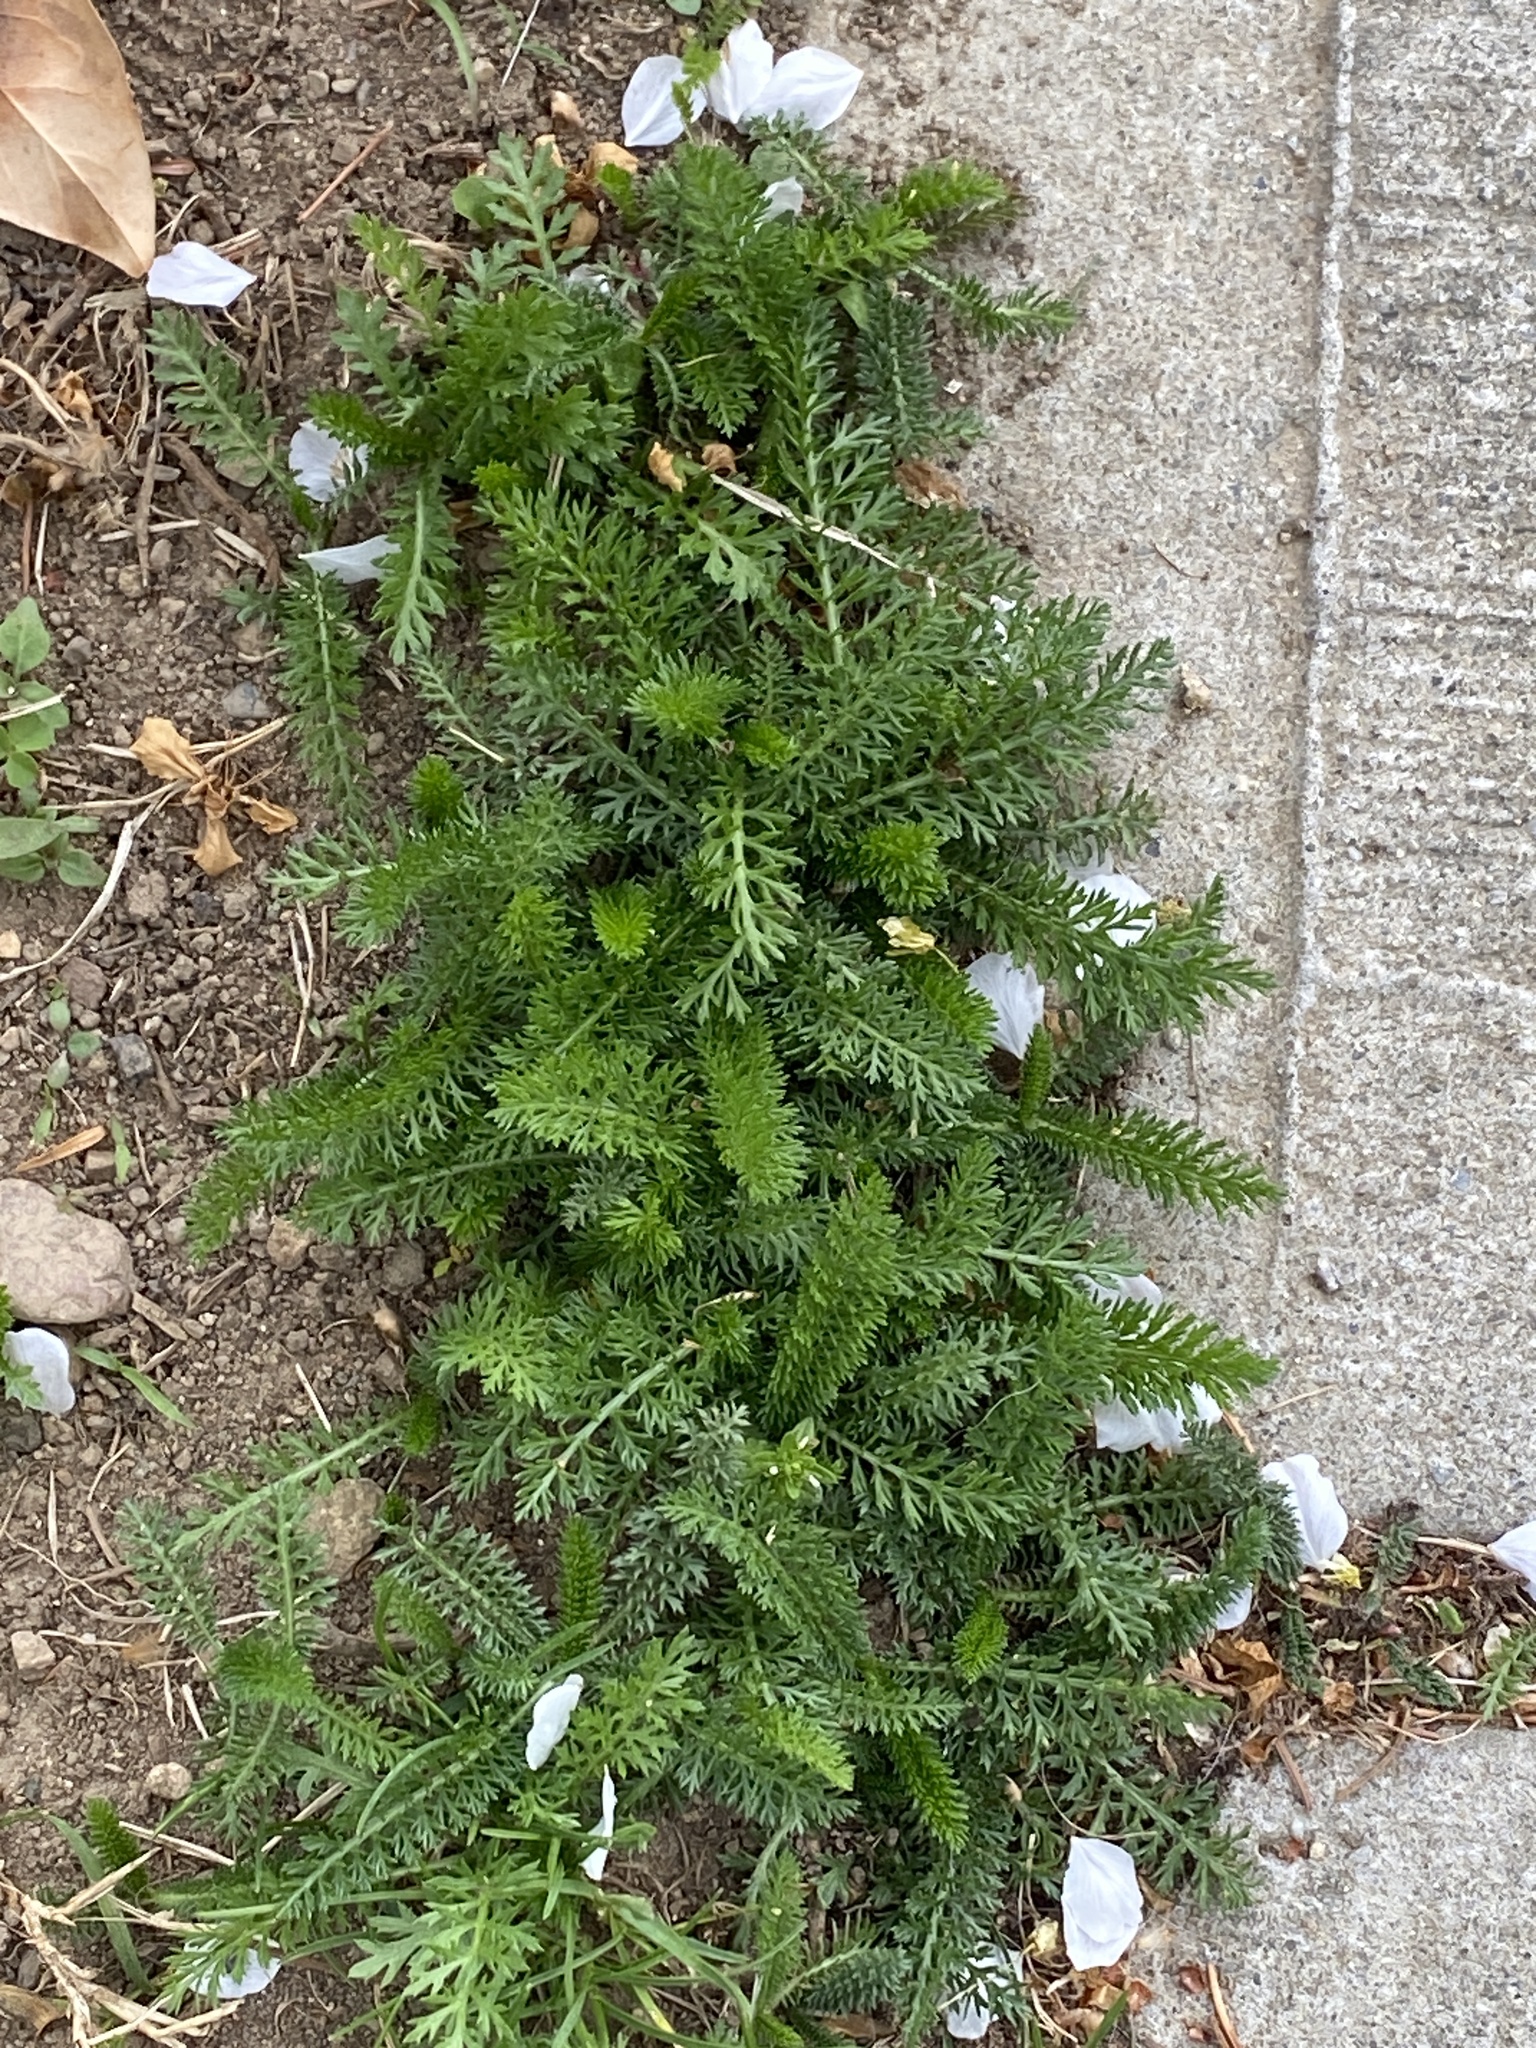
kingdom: Plantae
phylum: Tracheophyta
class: Magnoliopsida
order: Asterales
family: Asteraceae
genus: Achillea
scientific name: Achillea millefolium
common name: Yarrow
